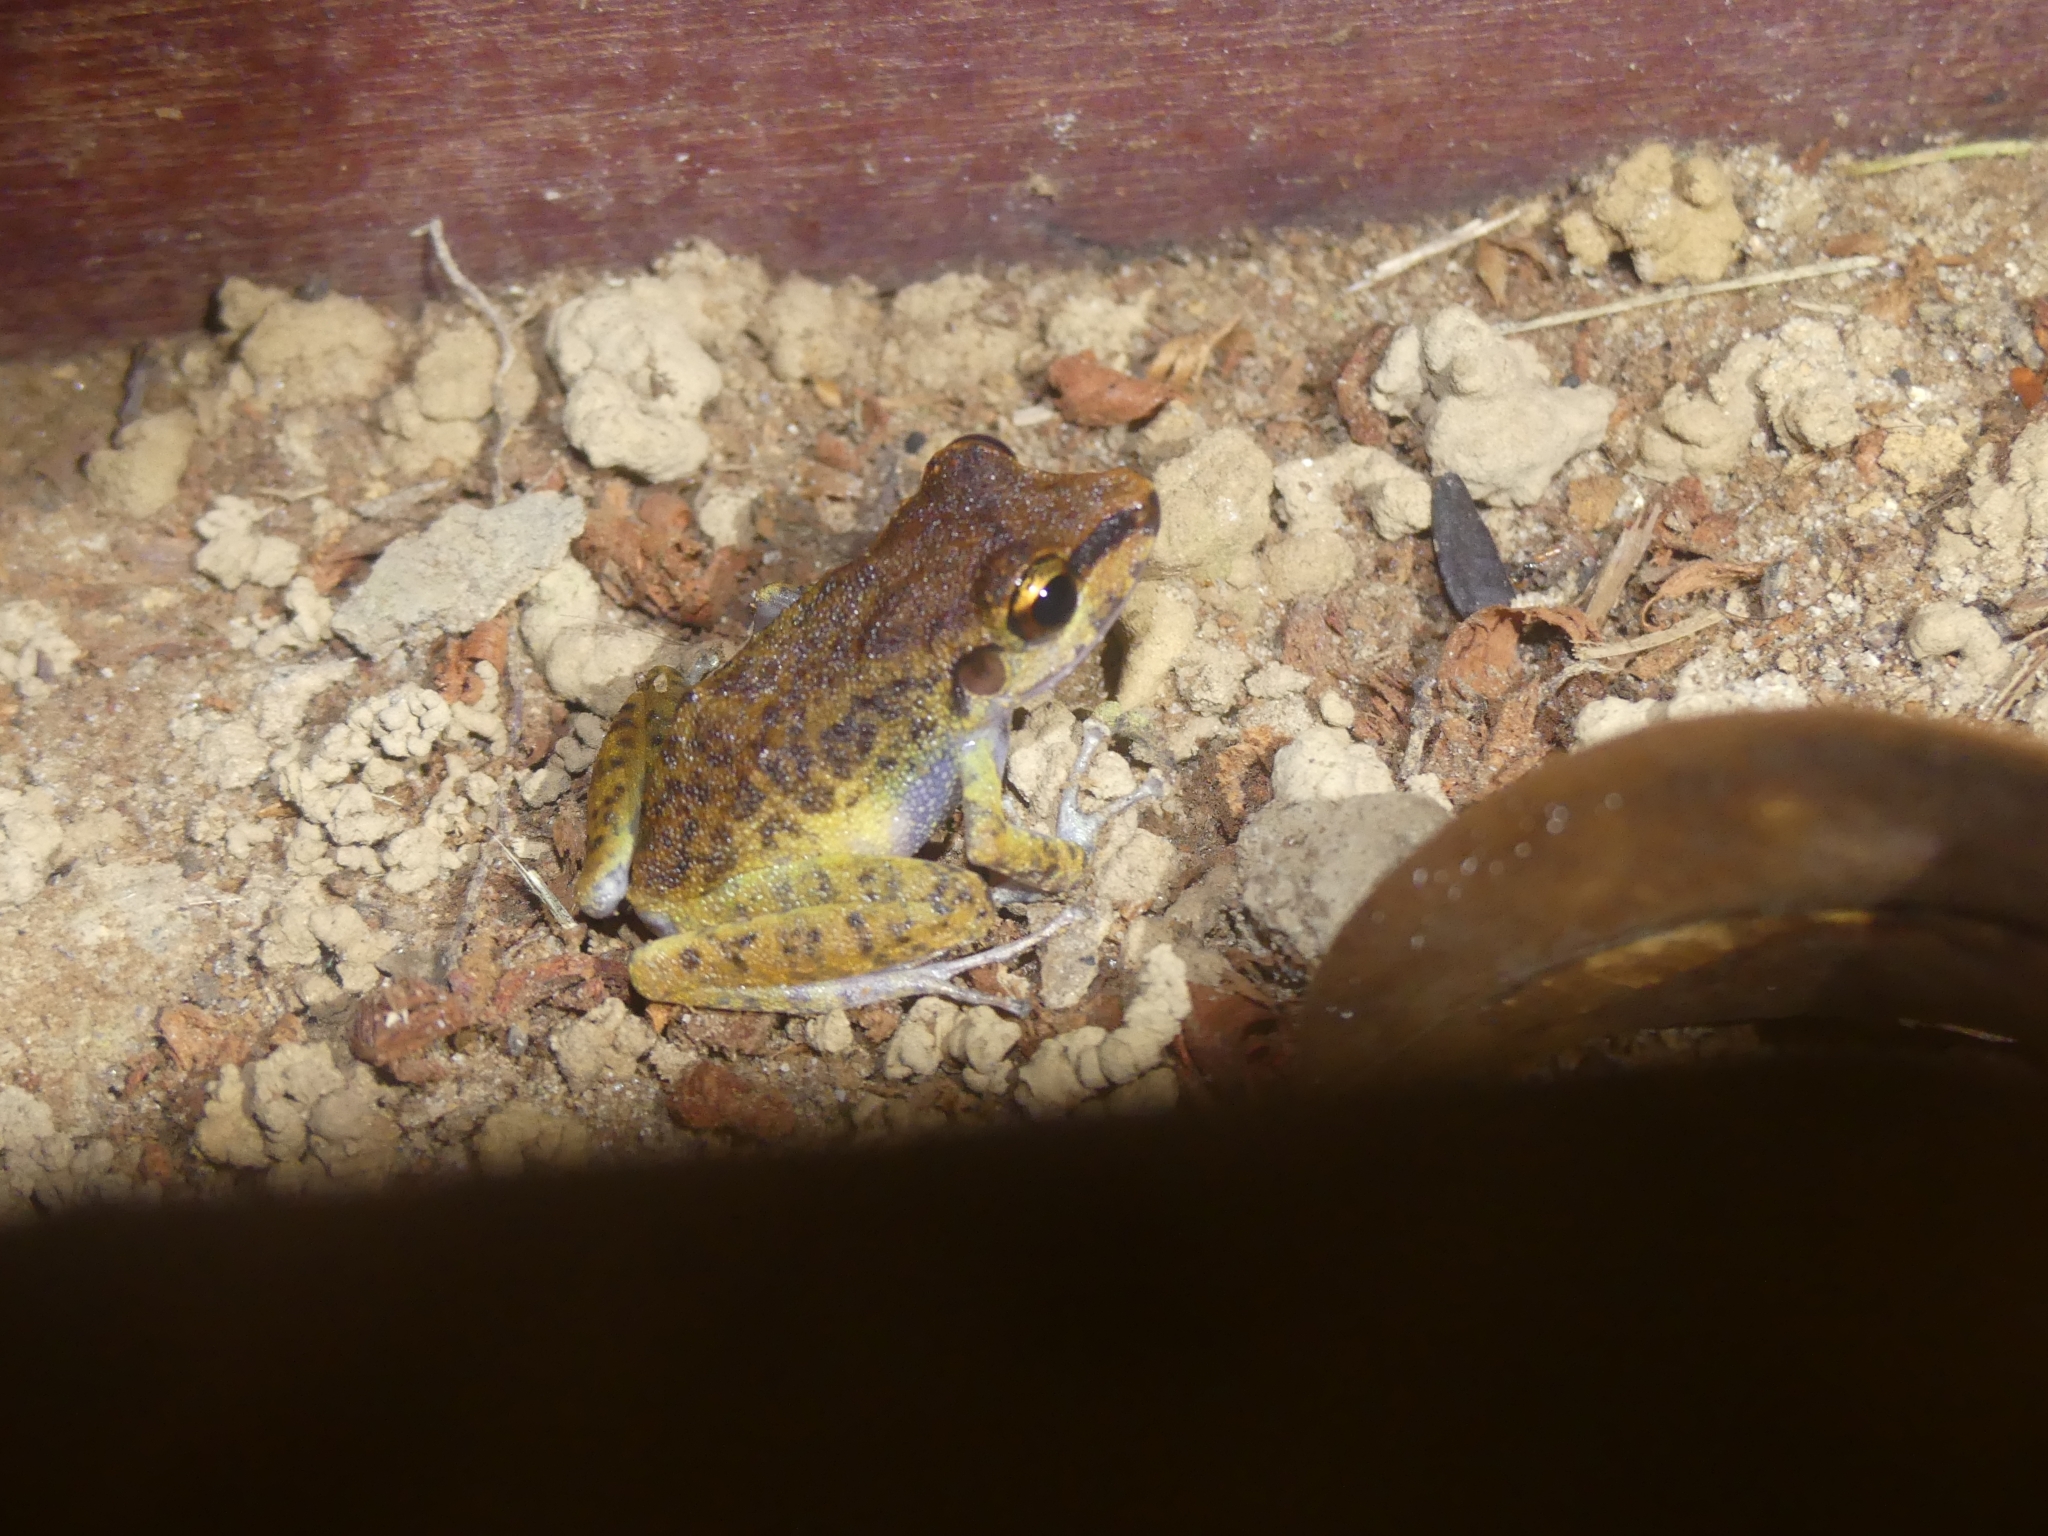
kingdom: Animalia
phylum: Chordata
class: Amphibia
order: Anura
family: Craugastoridae
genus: Pristimantis
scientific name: Pristimantis zeuctotylus
